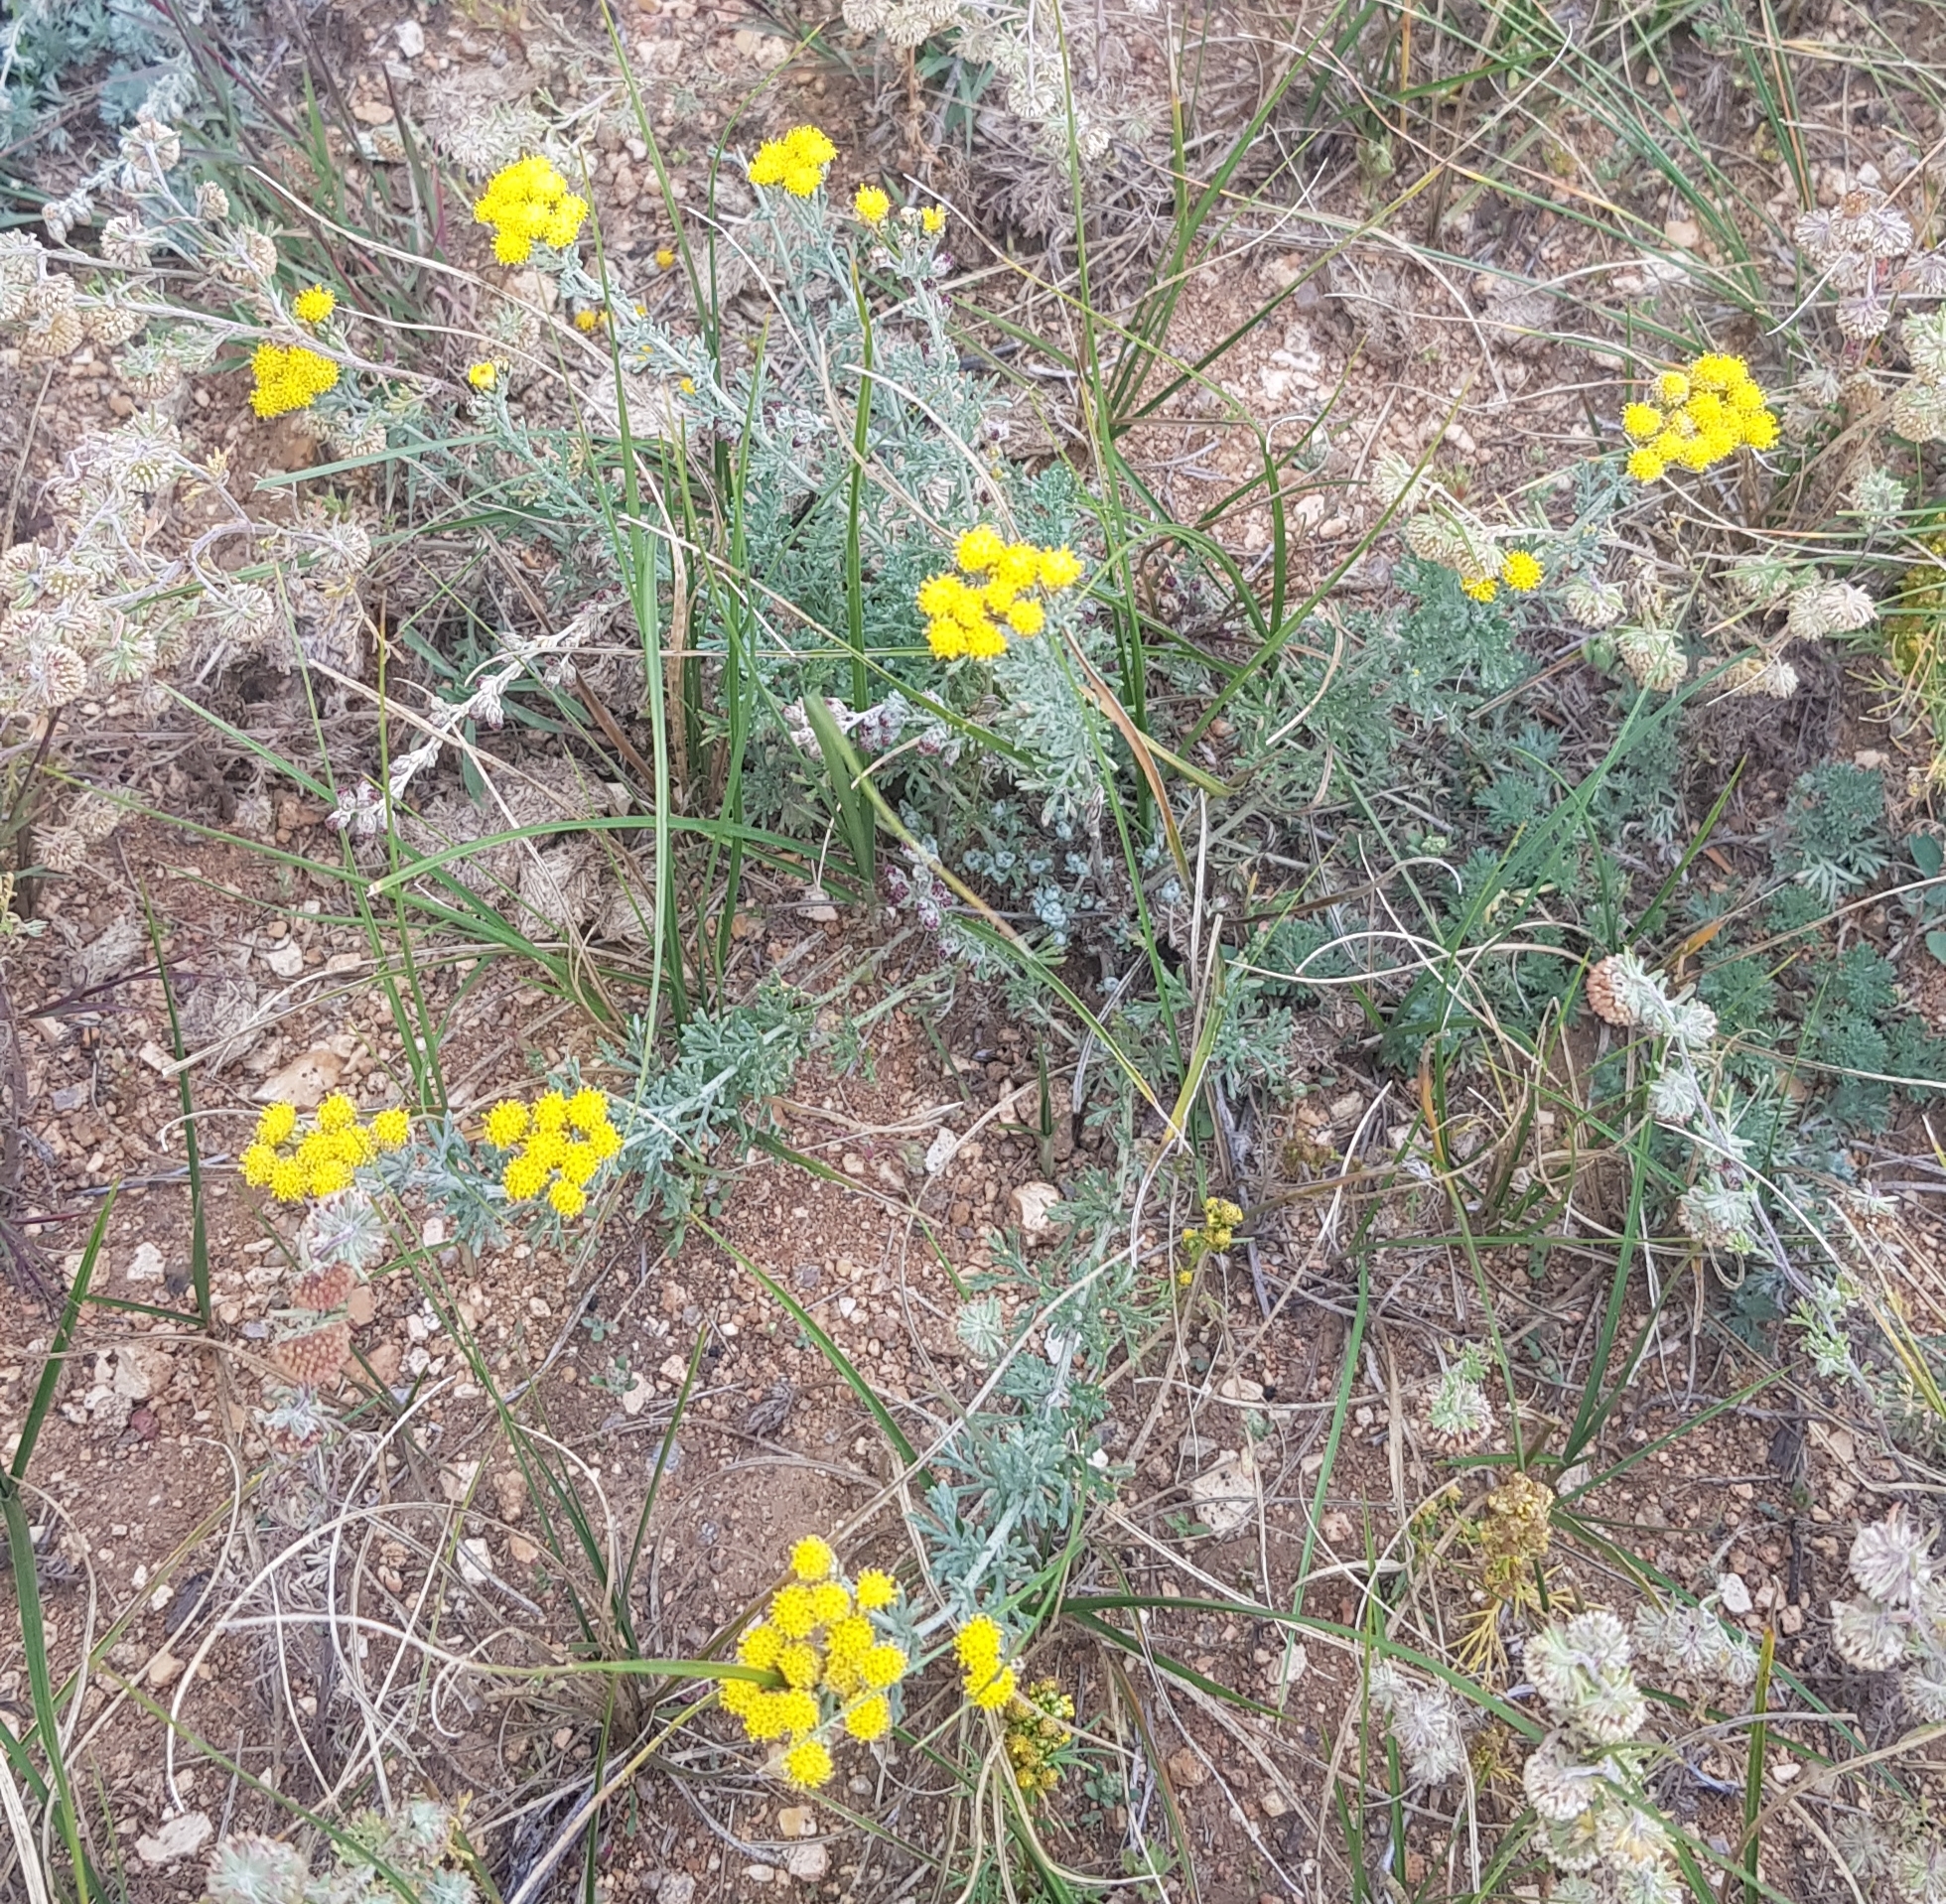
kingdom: Plantae
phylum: Tracheophyta
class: Magnoliopsida
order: Asterales
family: Asteraceae
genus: Ajania
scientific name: Ajania achilleoides
